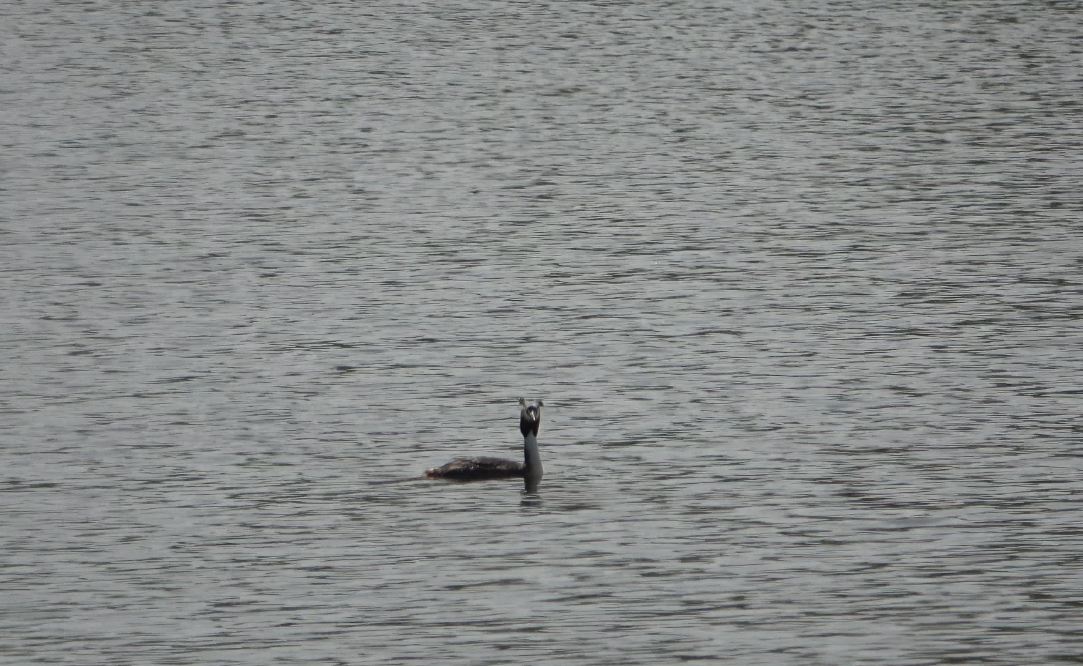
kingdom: Animalia
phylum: Chordata
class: Aves
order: Podicipediformes
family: Podicipedidae
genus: Podiceps
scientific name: Podiceps cristatus
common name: Great crested grebe
